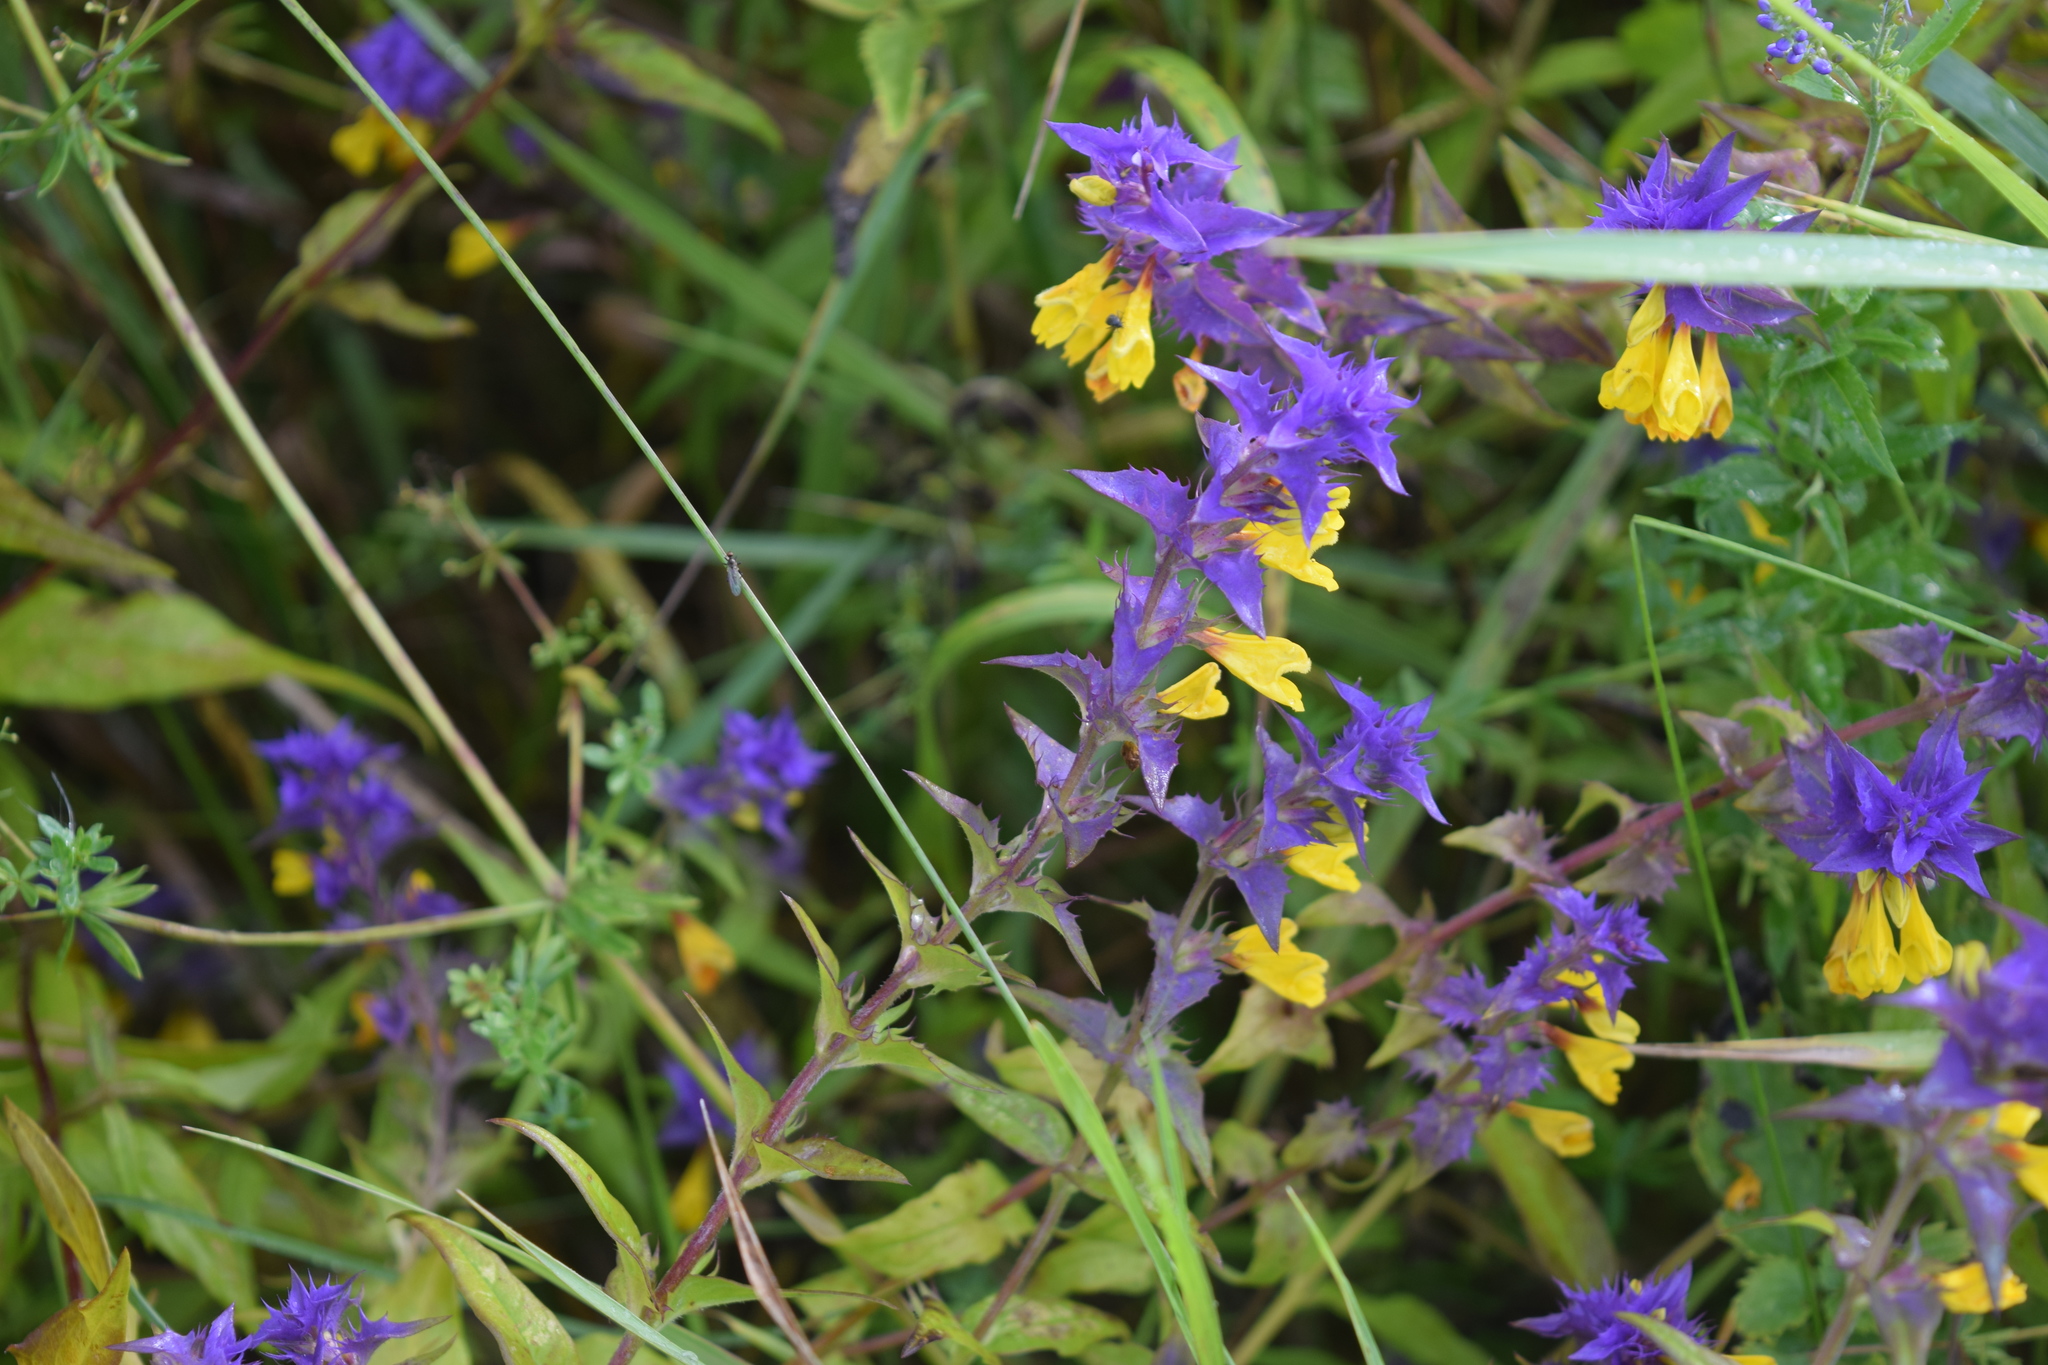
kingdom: Plantae
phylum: Tracheophyta
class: Magnoliopsida
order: Lamiales
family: Orobanchaceae
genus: Melampyrum
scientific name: Melampyrum nemorosum
